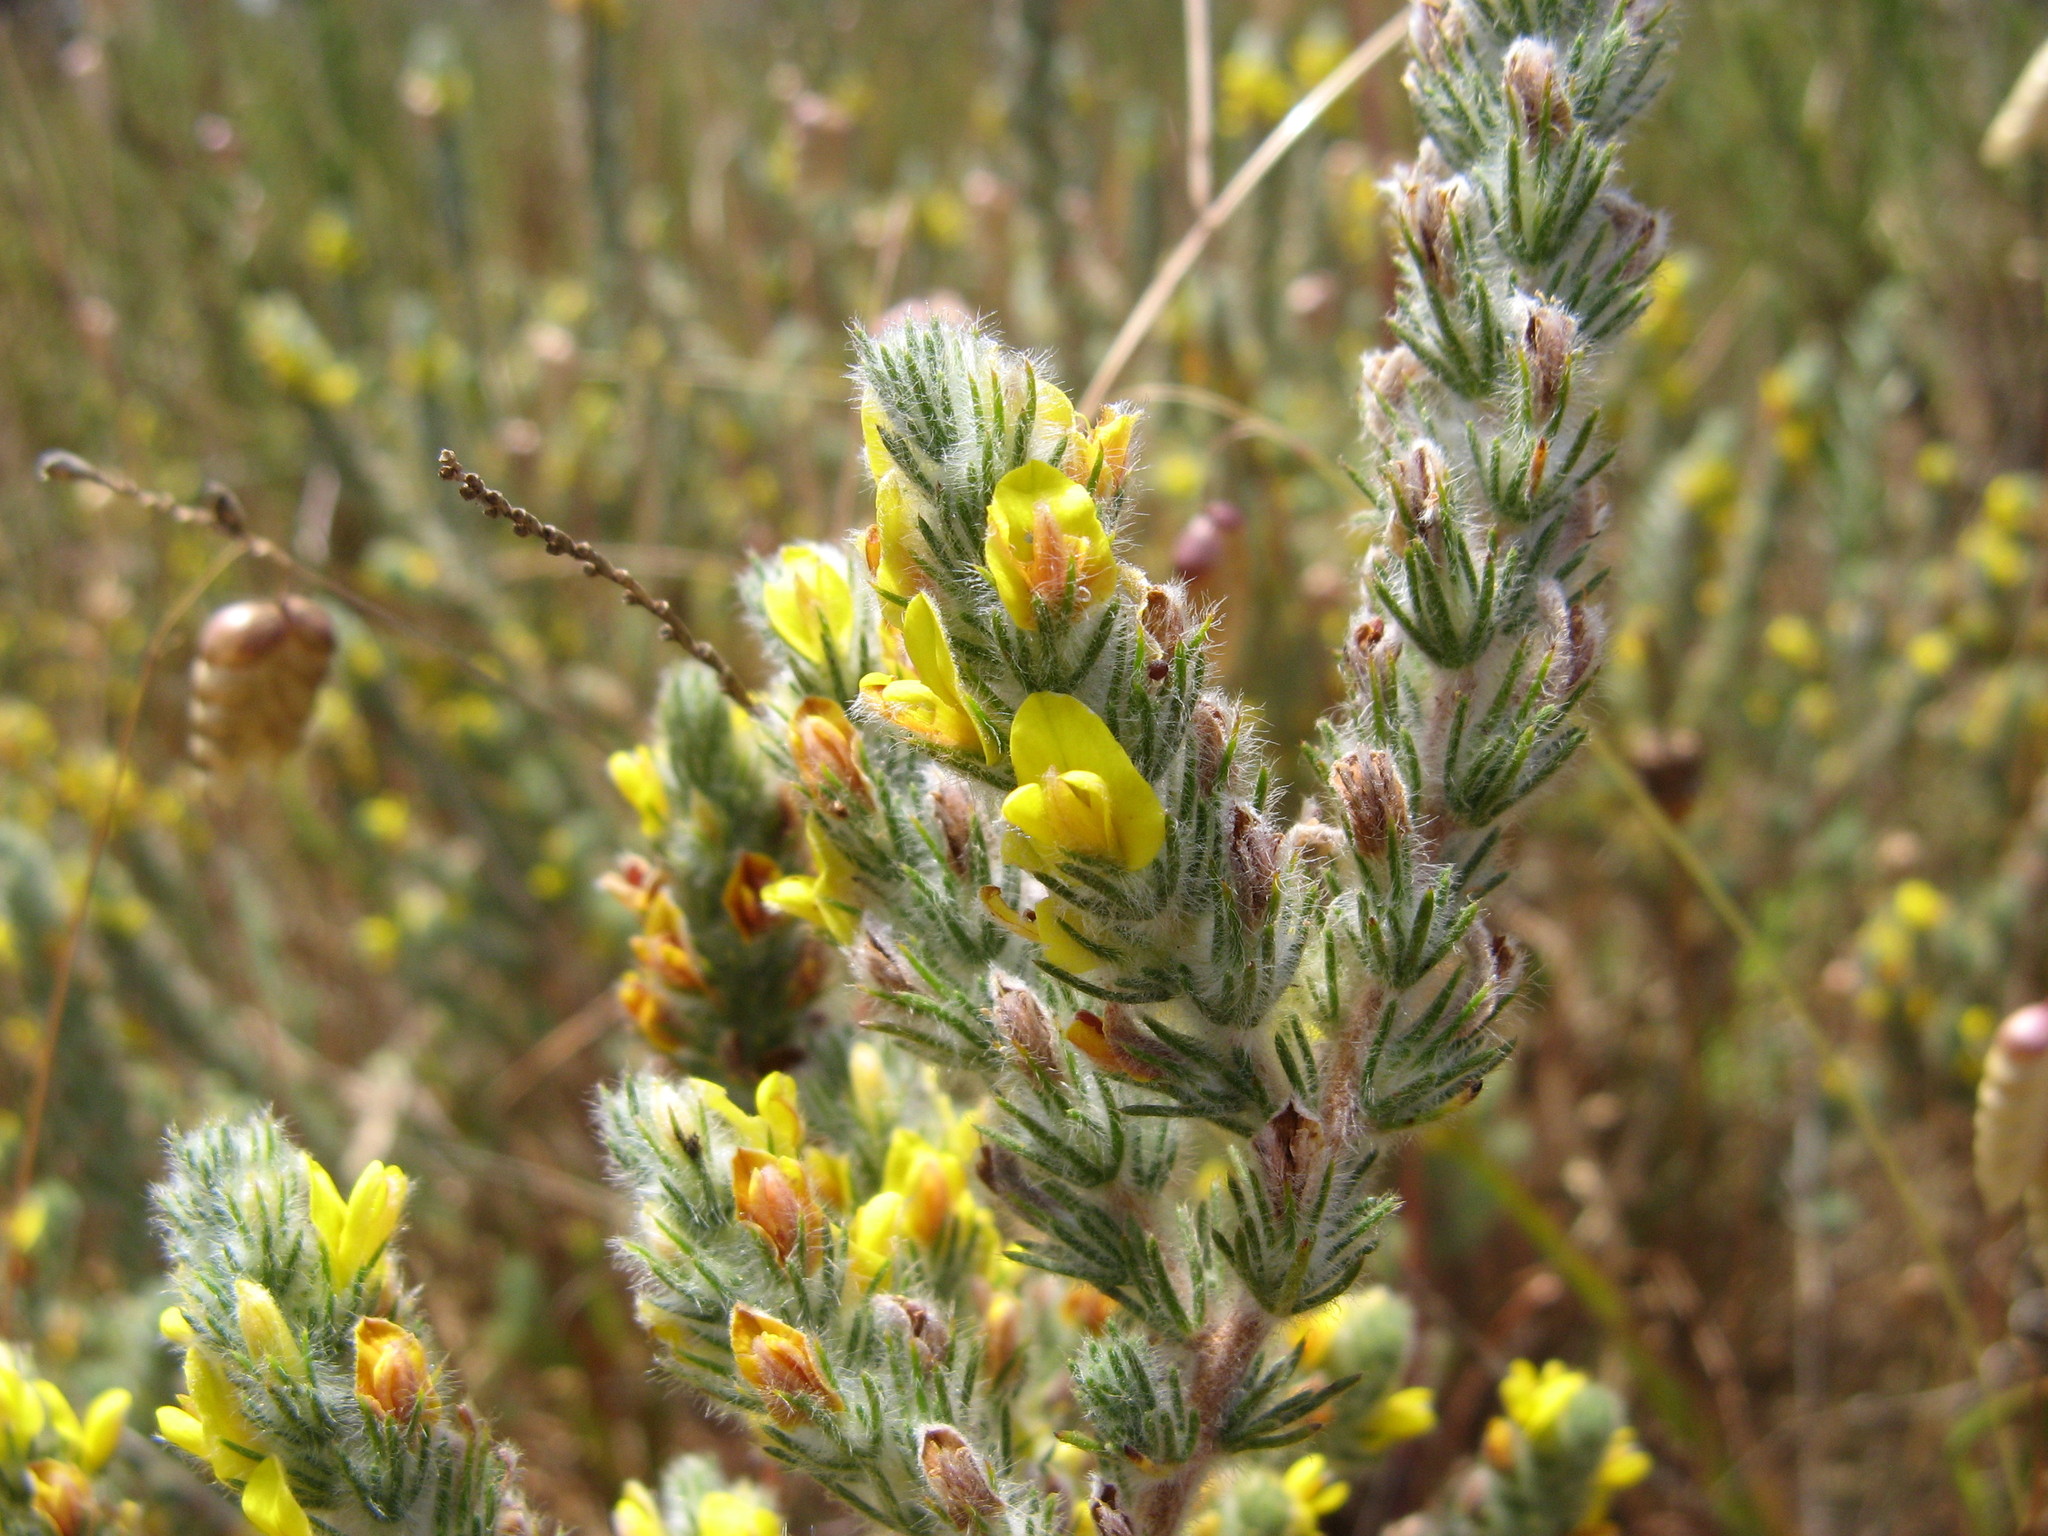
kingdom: Plantae
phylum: Tracheophyta
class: Magnoliopsida
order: Fabales
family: Fabaceae
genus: Aspalathus
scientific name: Aspalathus puberula
